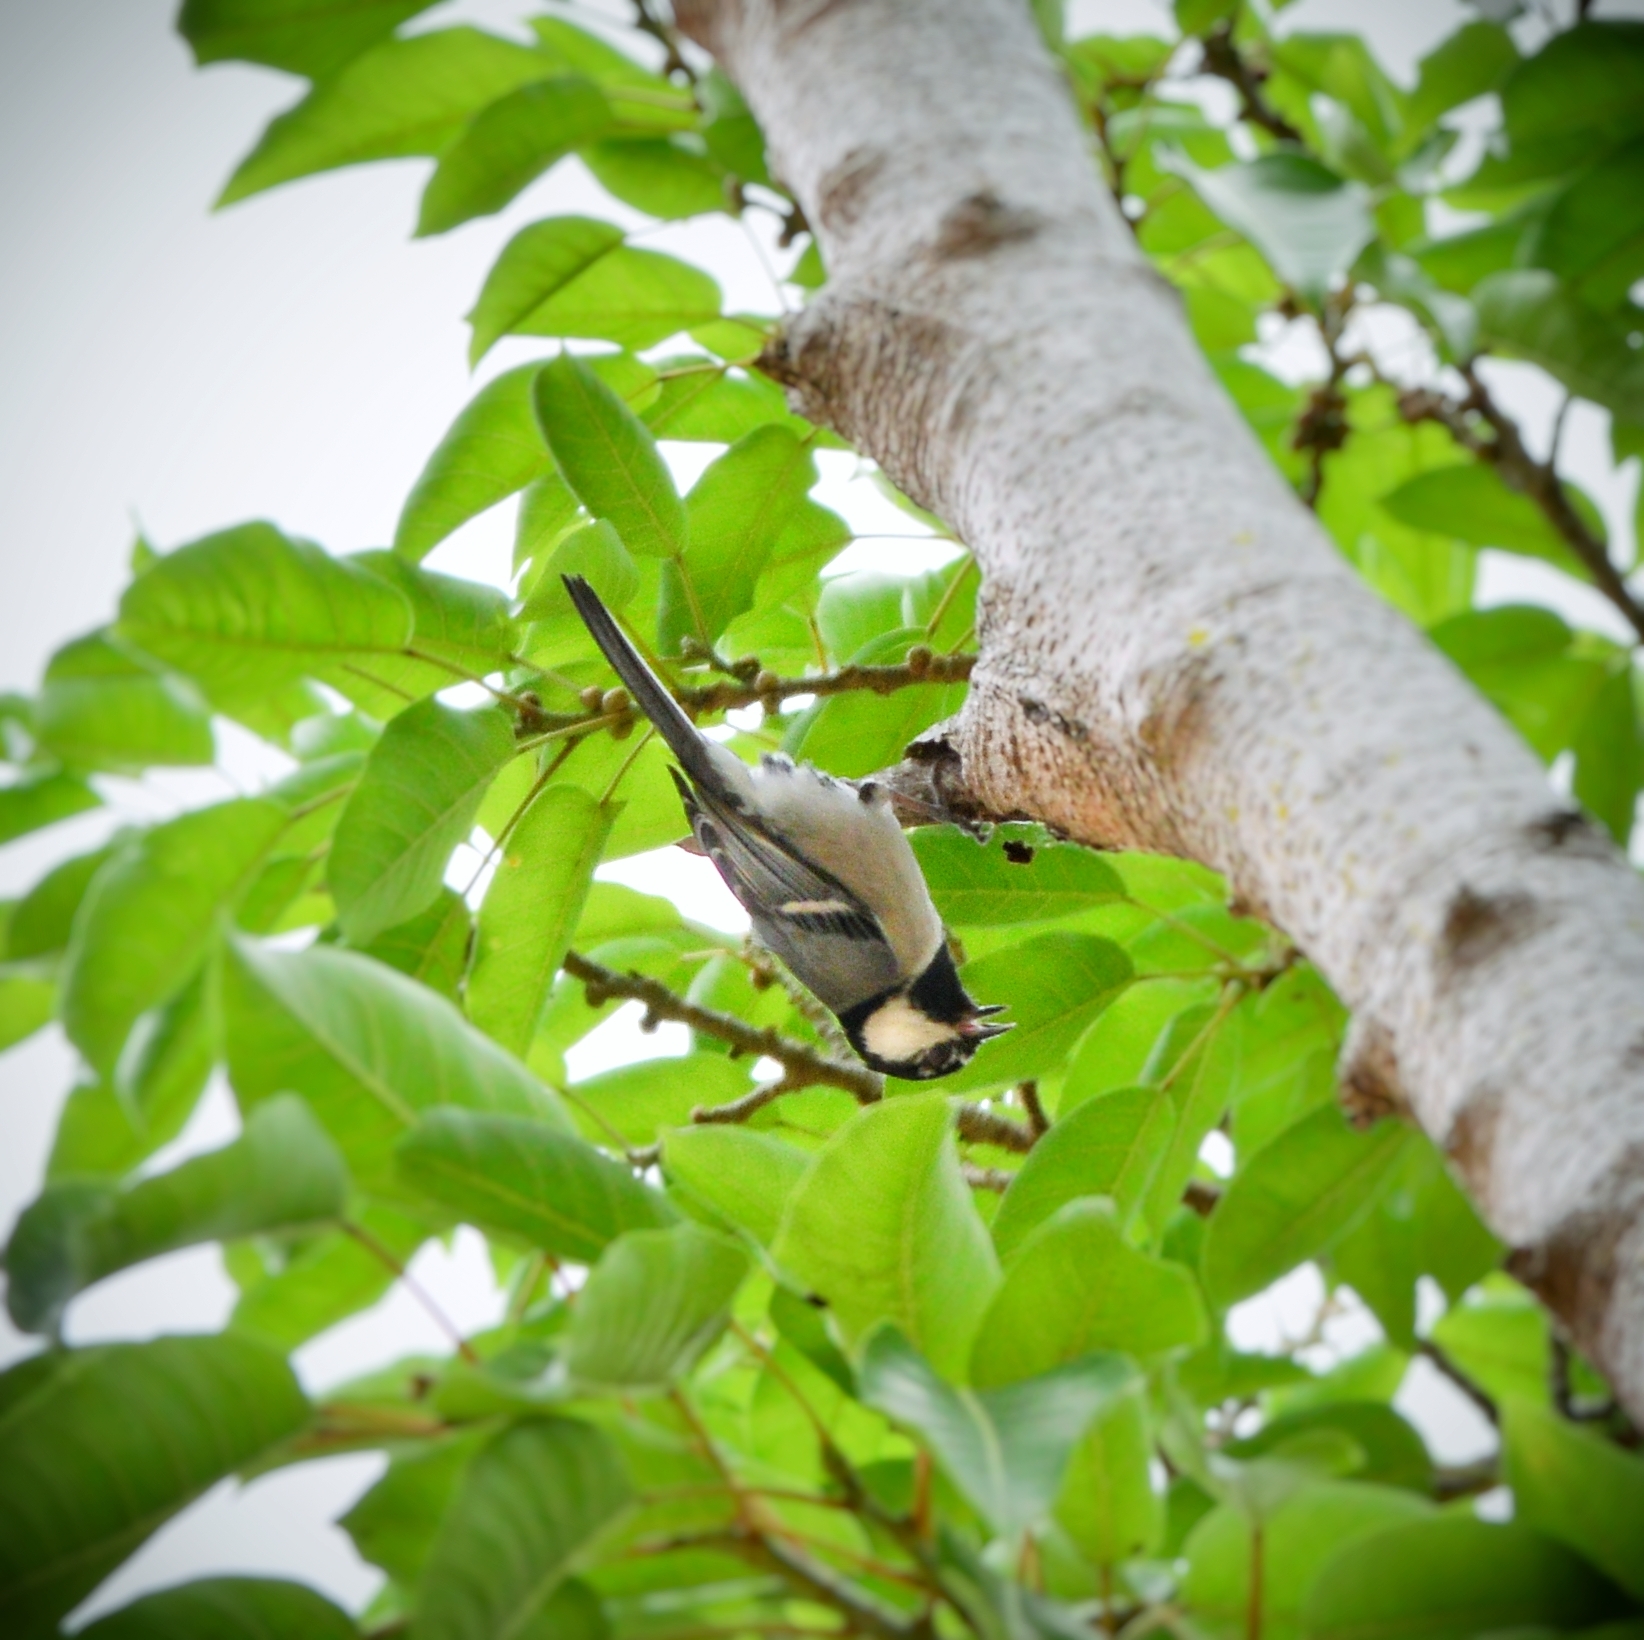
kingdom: Animalia
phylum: Chordata
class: Aves
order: Passeriformes
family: Paridae
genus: Parus
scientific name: Parus minor
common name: Japanese tit
